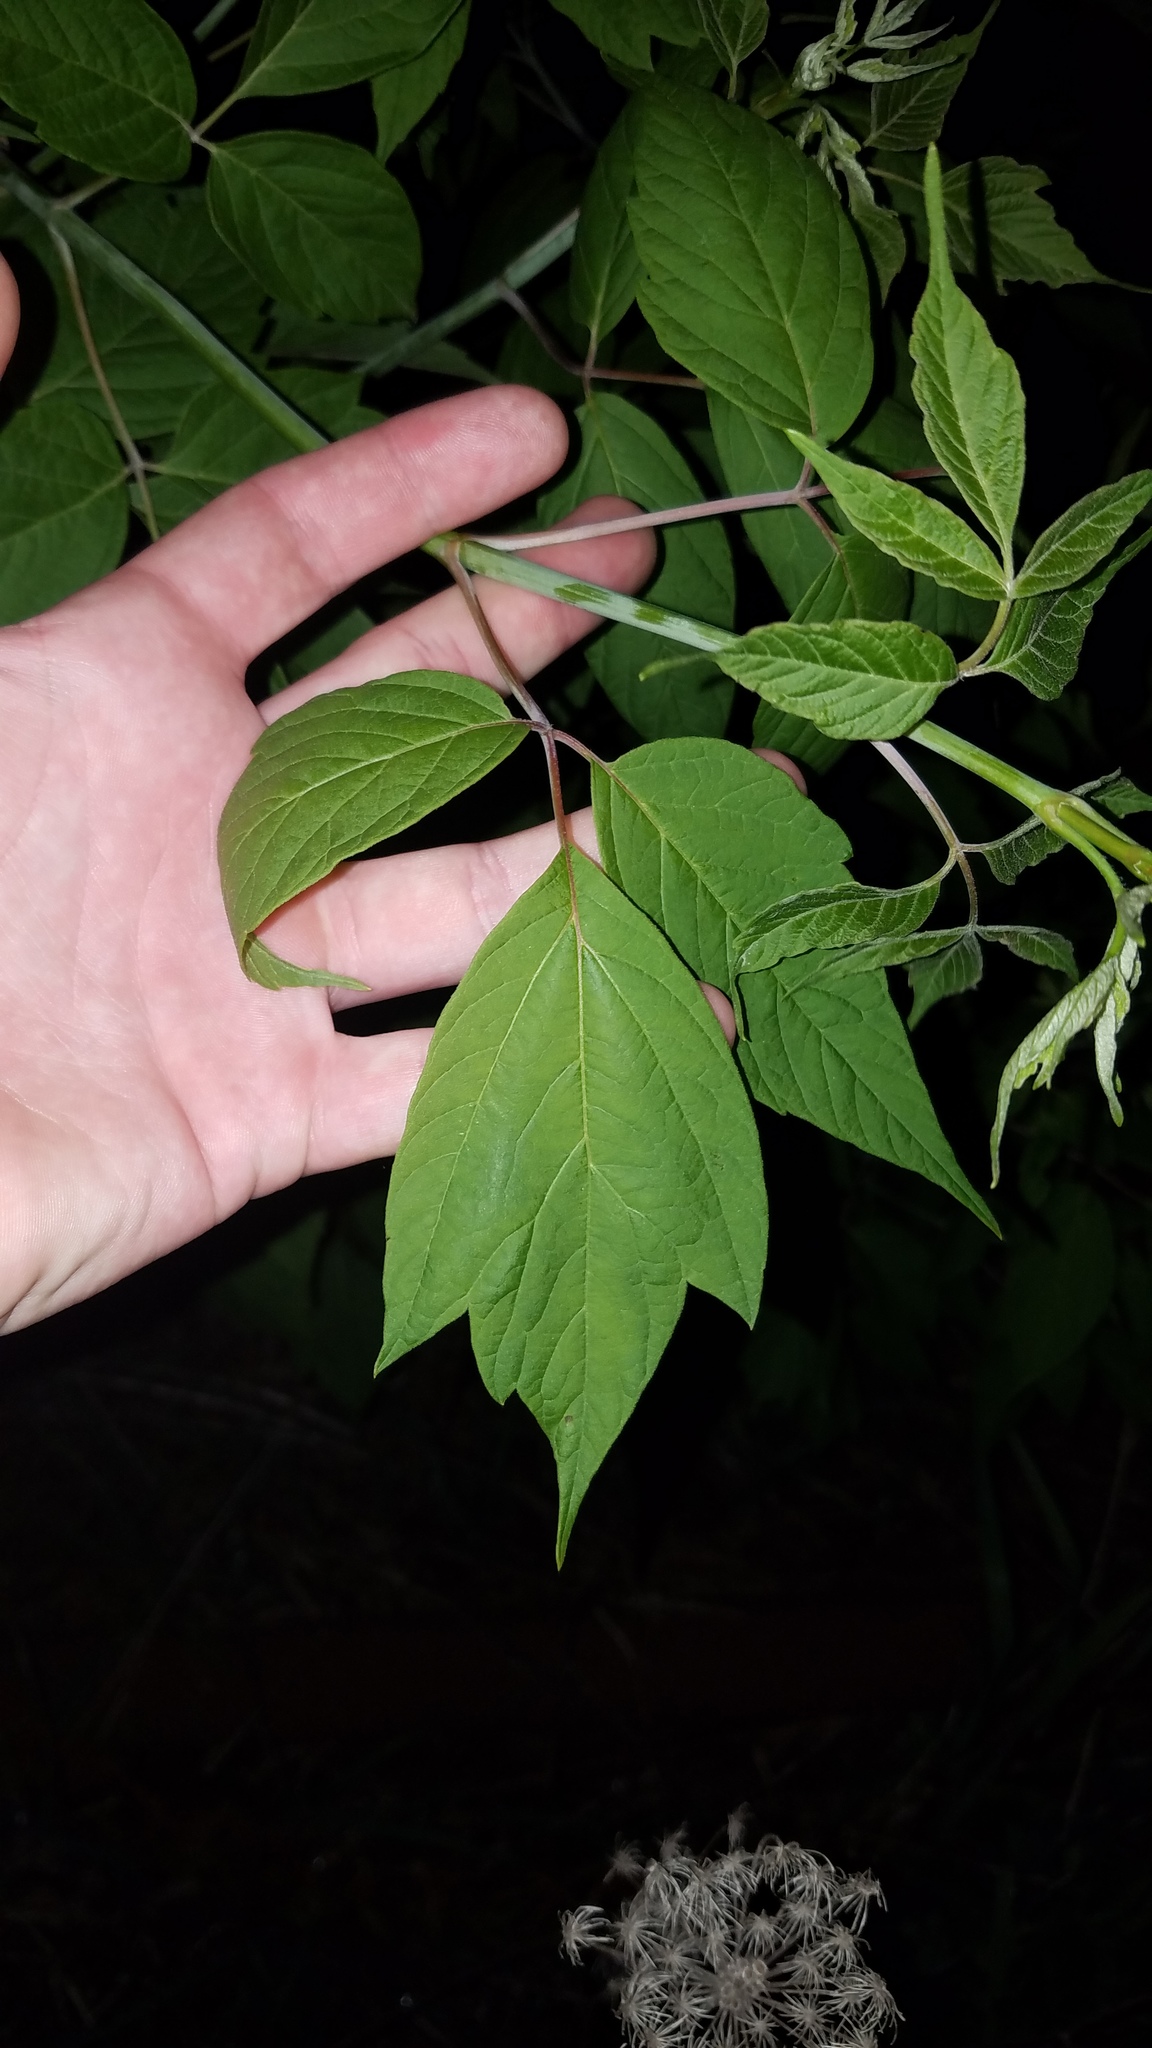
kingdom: Plantae
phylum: Tracheophyta
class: Magnoliopsida
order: Sapindales
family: Sapindaceae
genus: Acer
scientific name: Acer negundo
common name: Ashleaf maple
